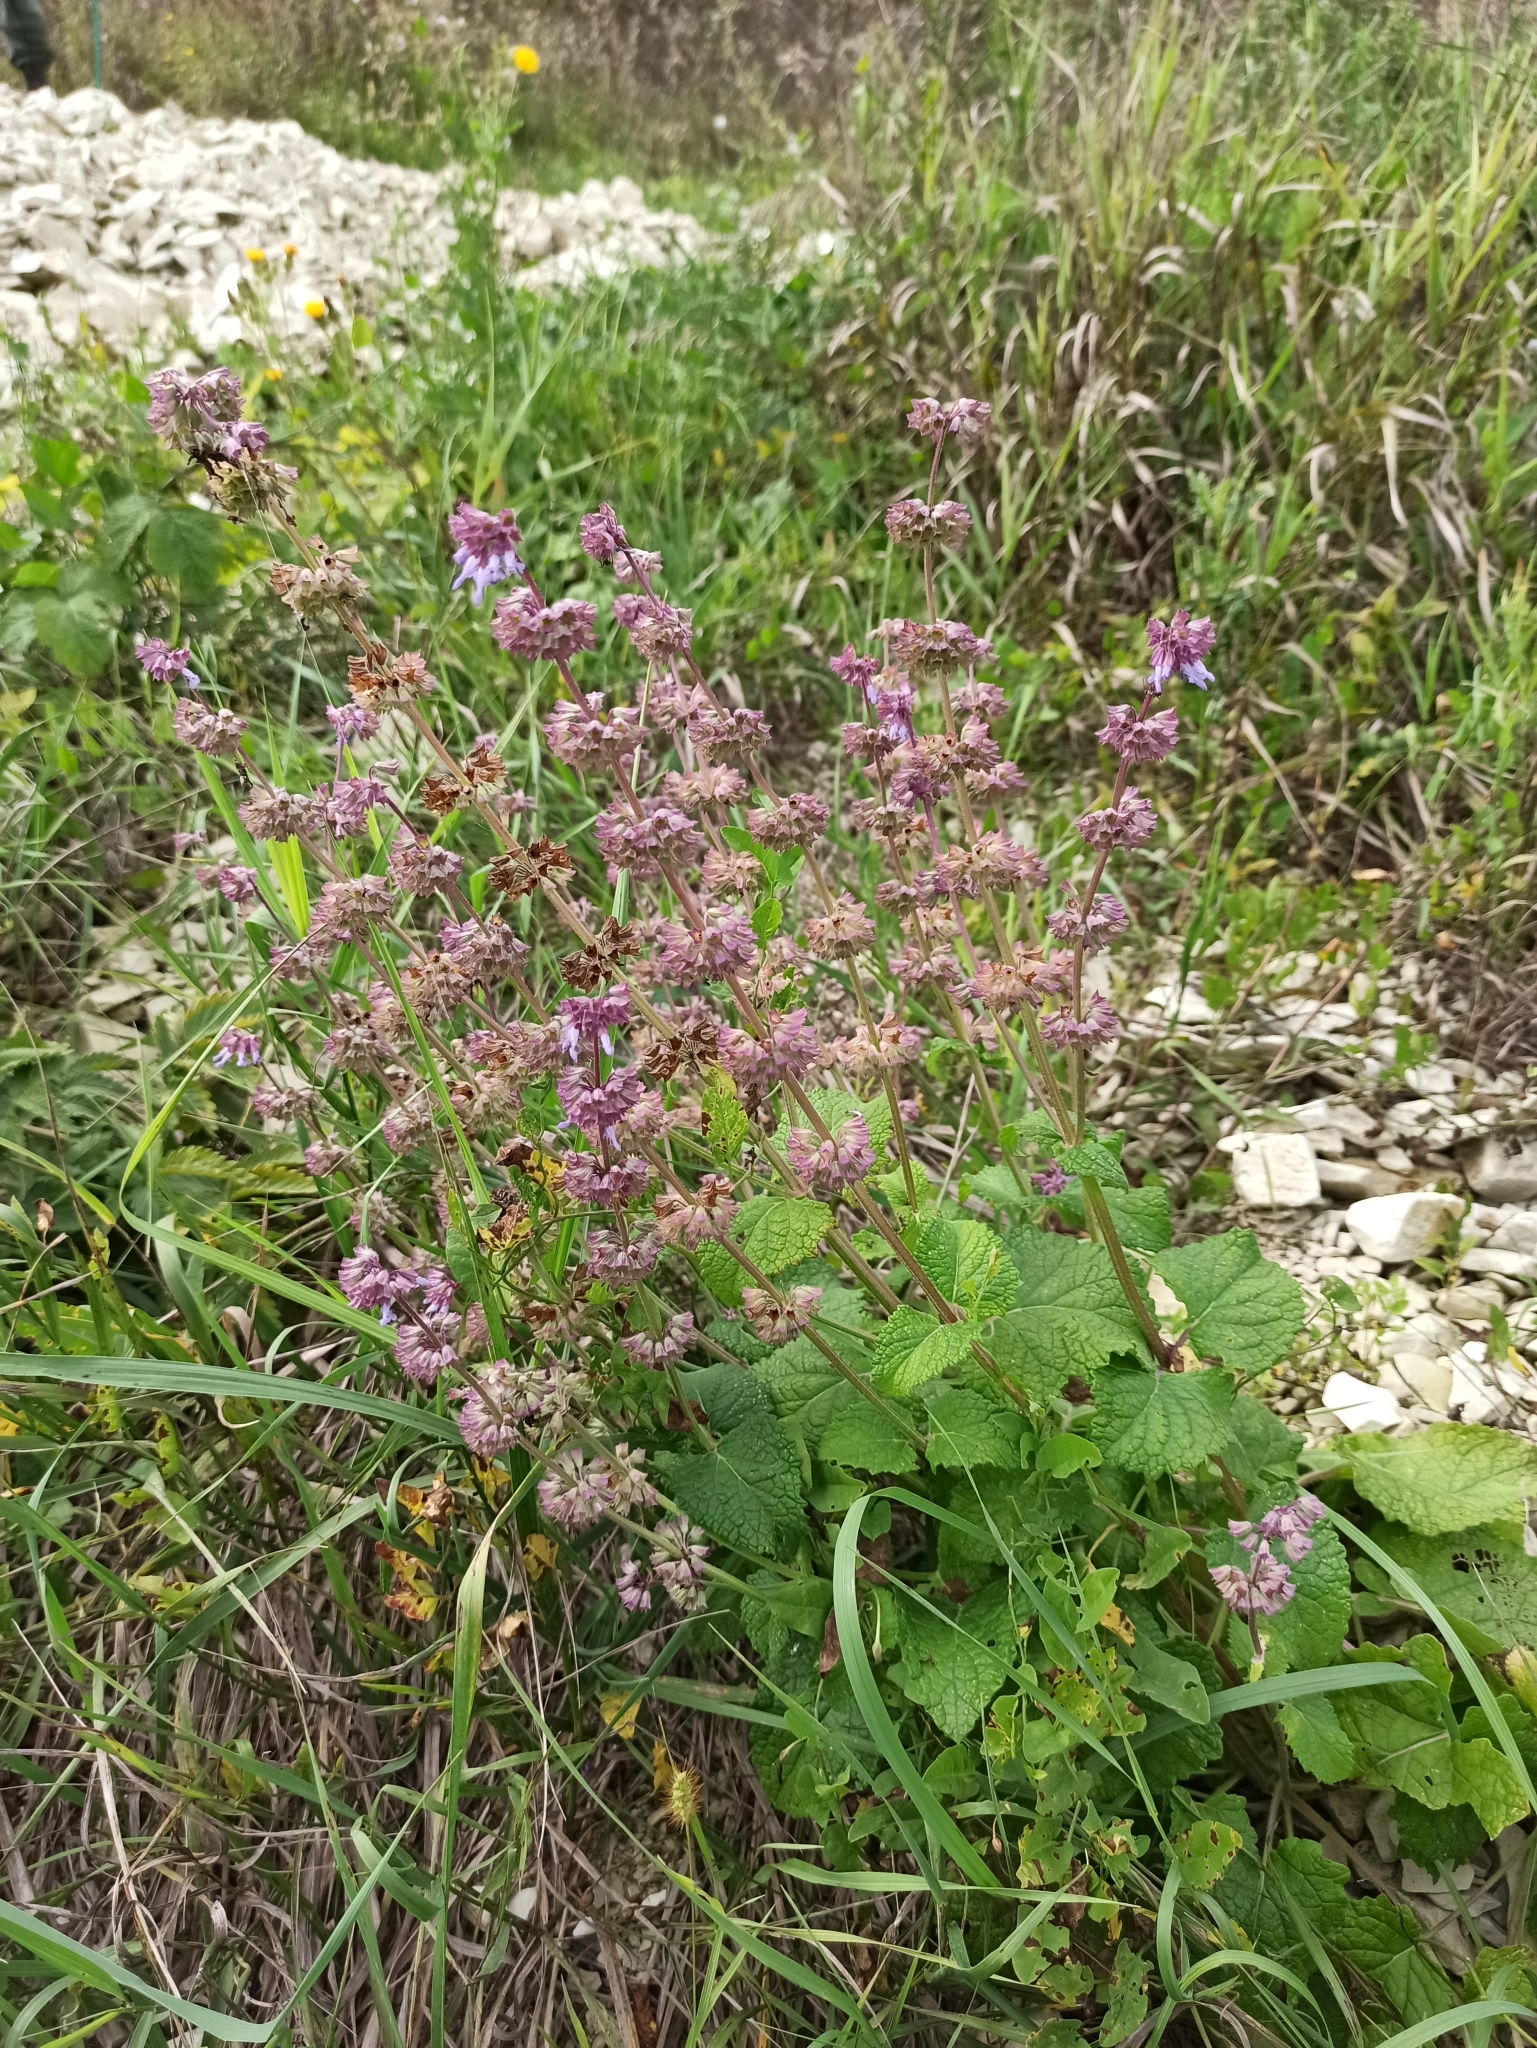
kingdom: Plantae
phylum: Tracheophyta
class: Magnoliopsida
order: Lamiales
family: Lamiaceae
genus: Salvia
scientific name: Salvia verticillata
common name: Whorled clary
